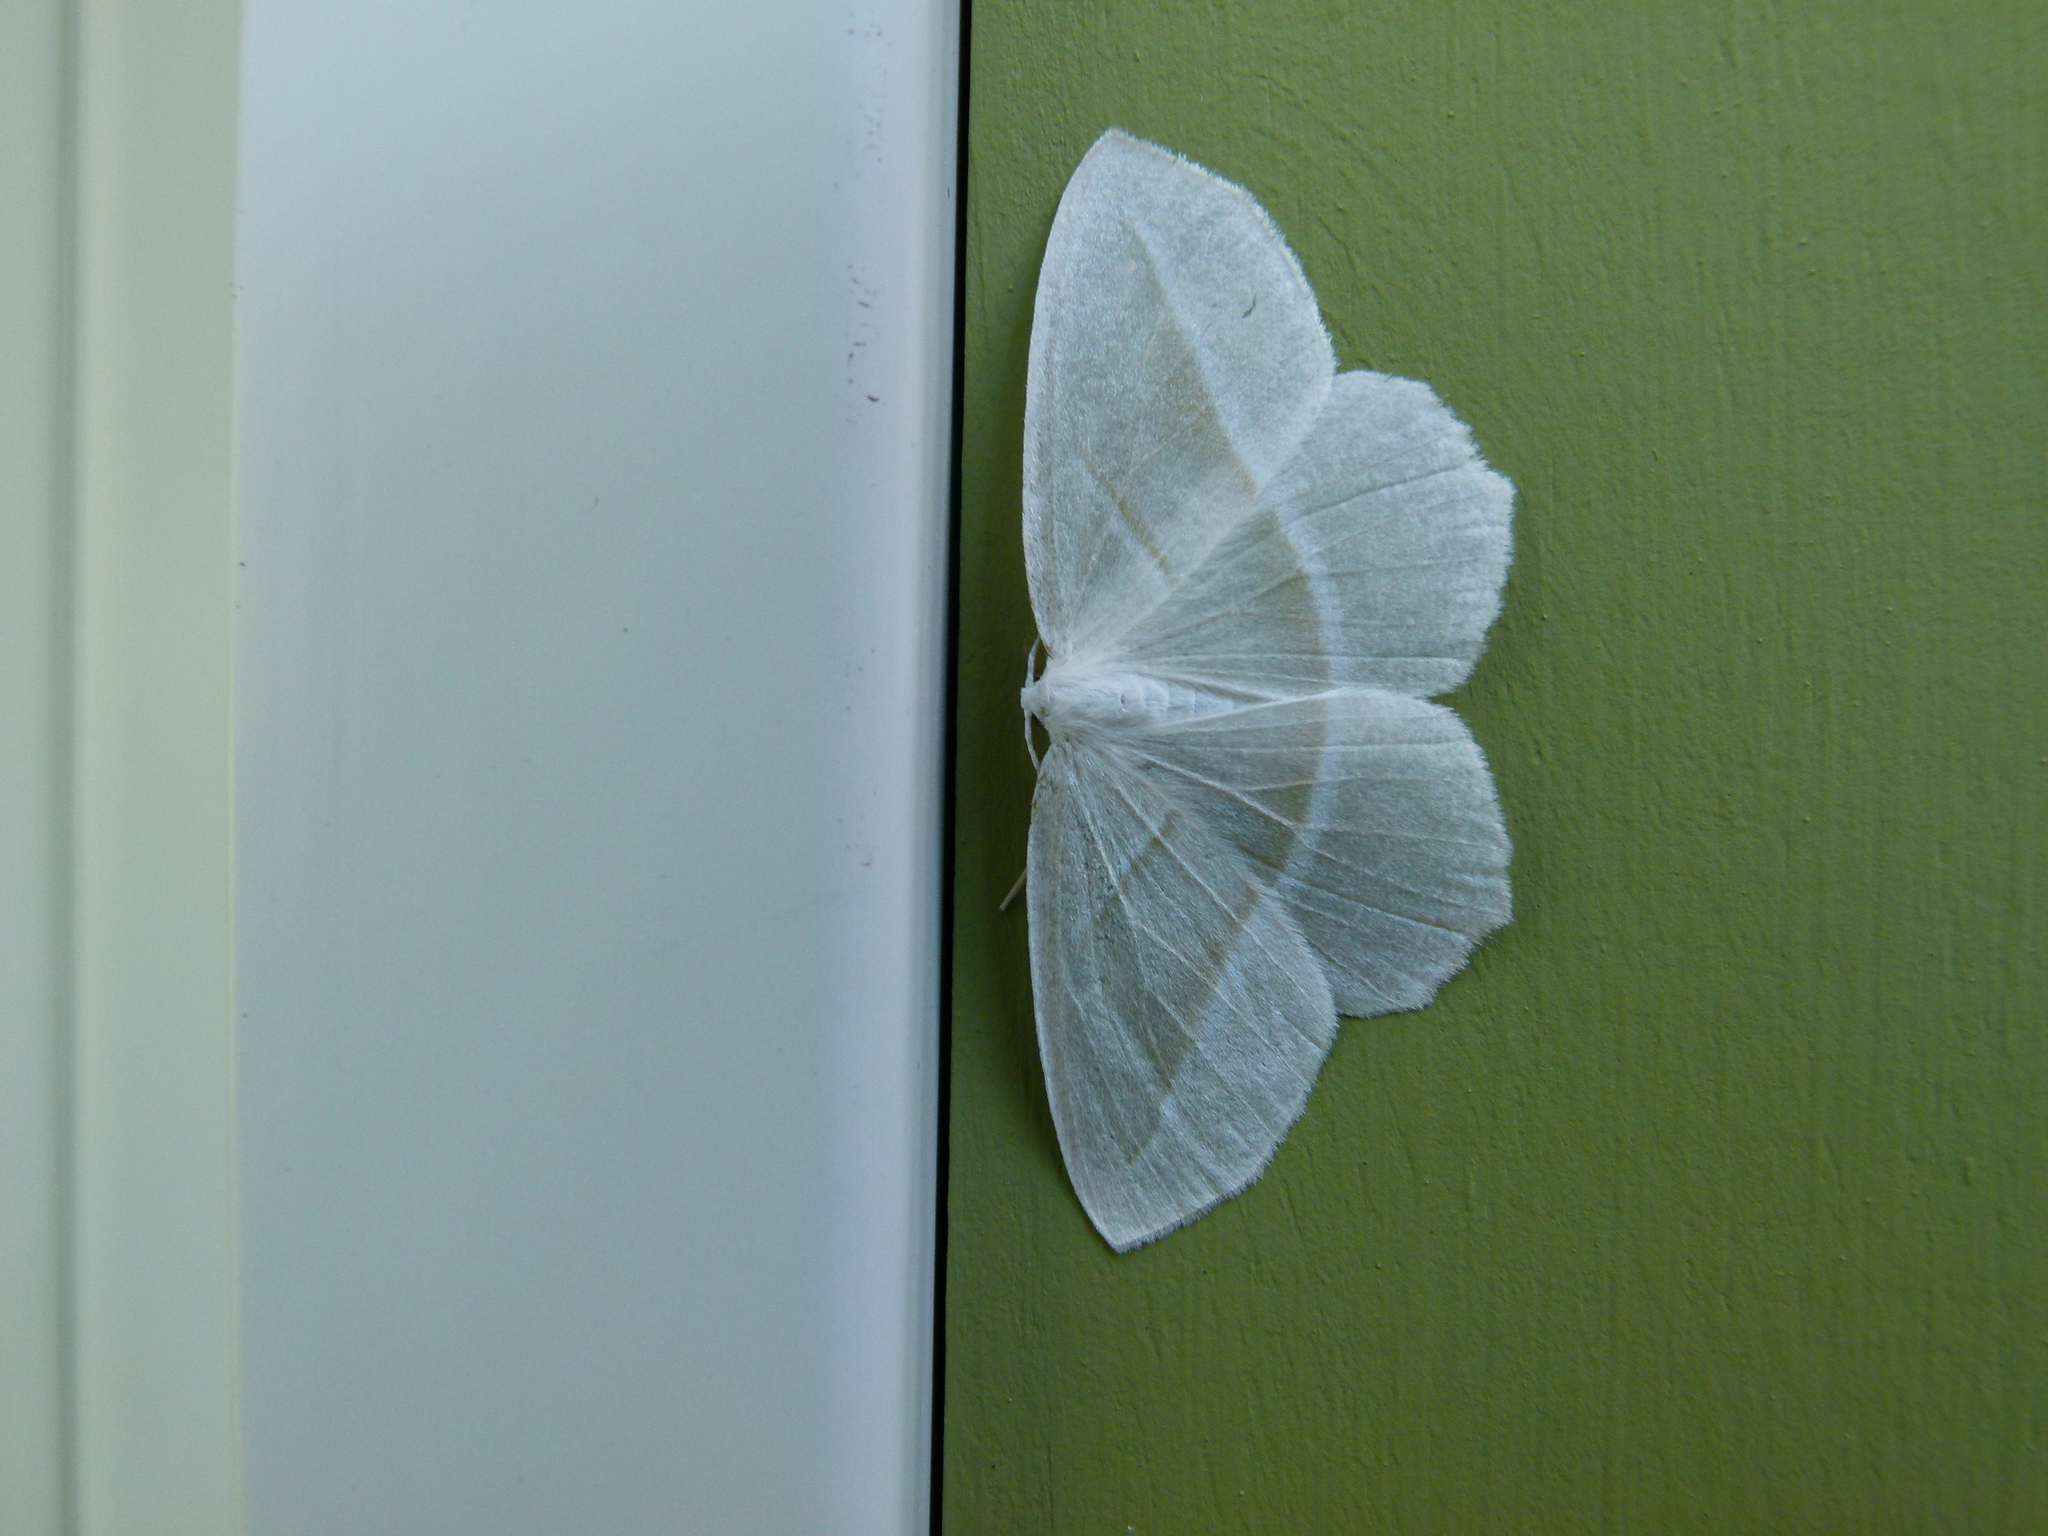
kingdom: Animalia
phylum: Arthropoda
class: Insecta
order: Lepidoptera
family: Geometridae
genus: Campaea
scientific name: Campaea perlata
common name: Fringed looper
